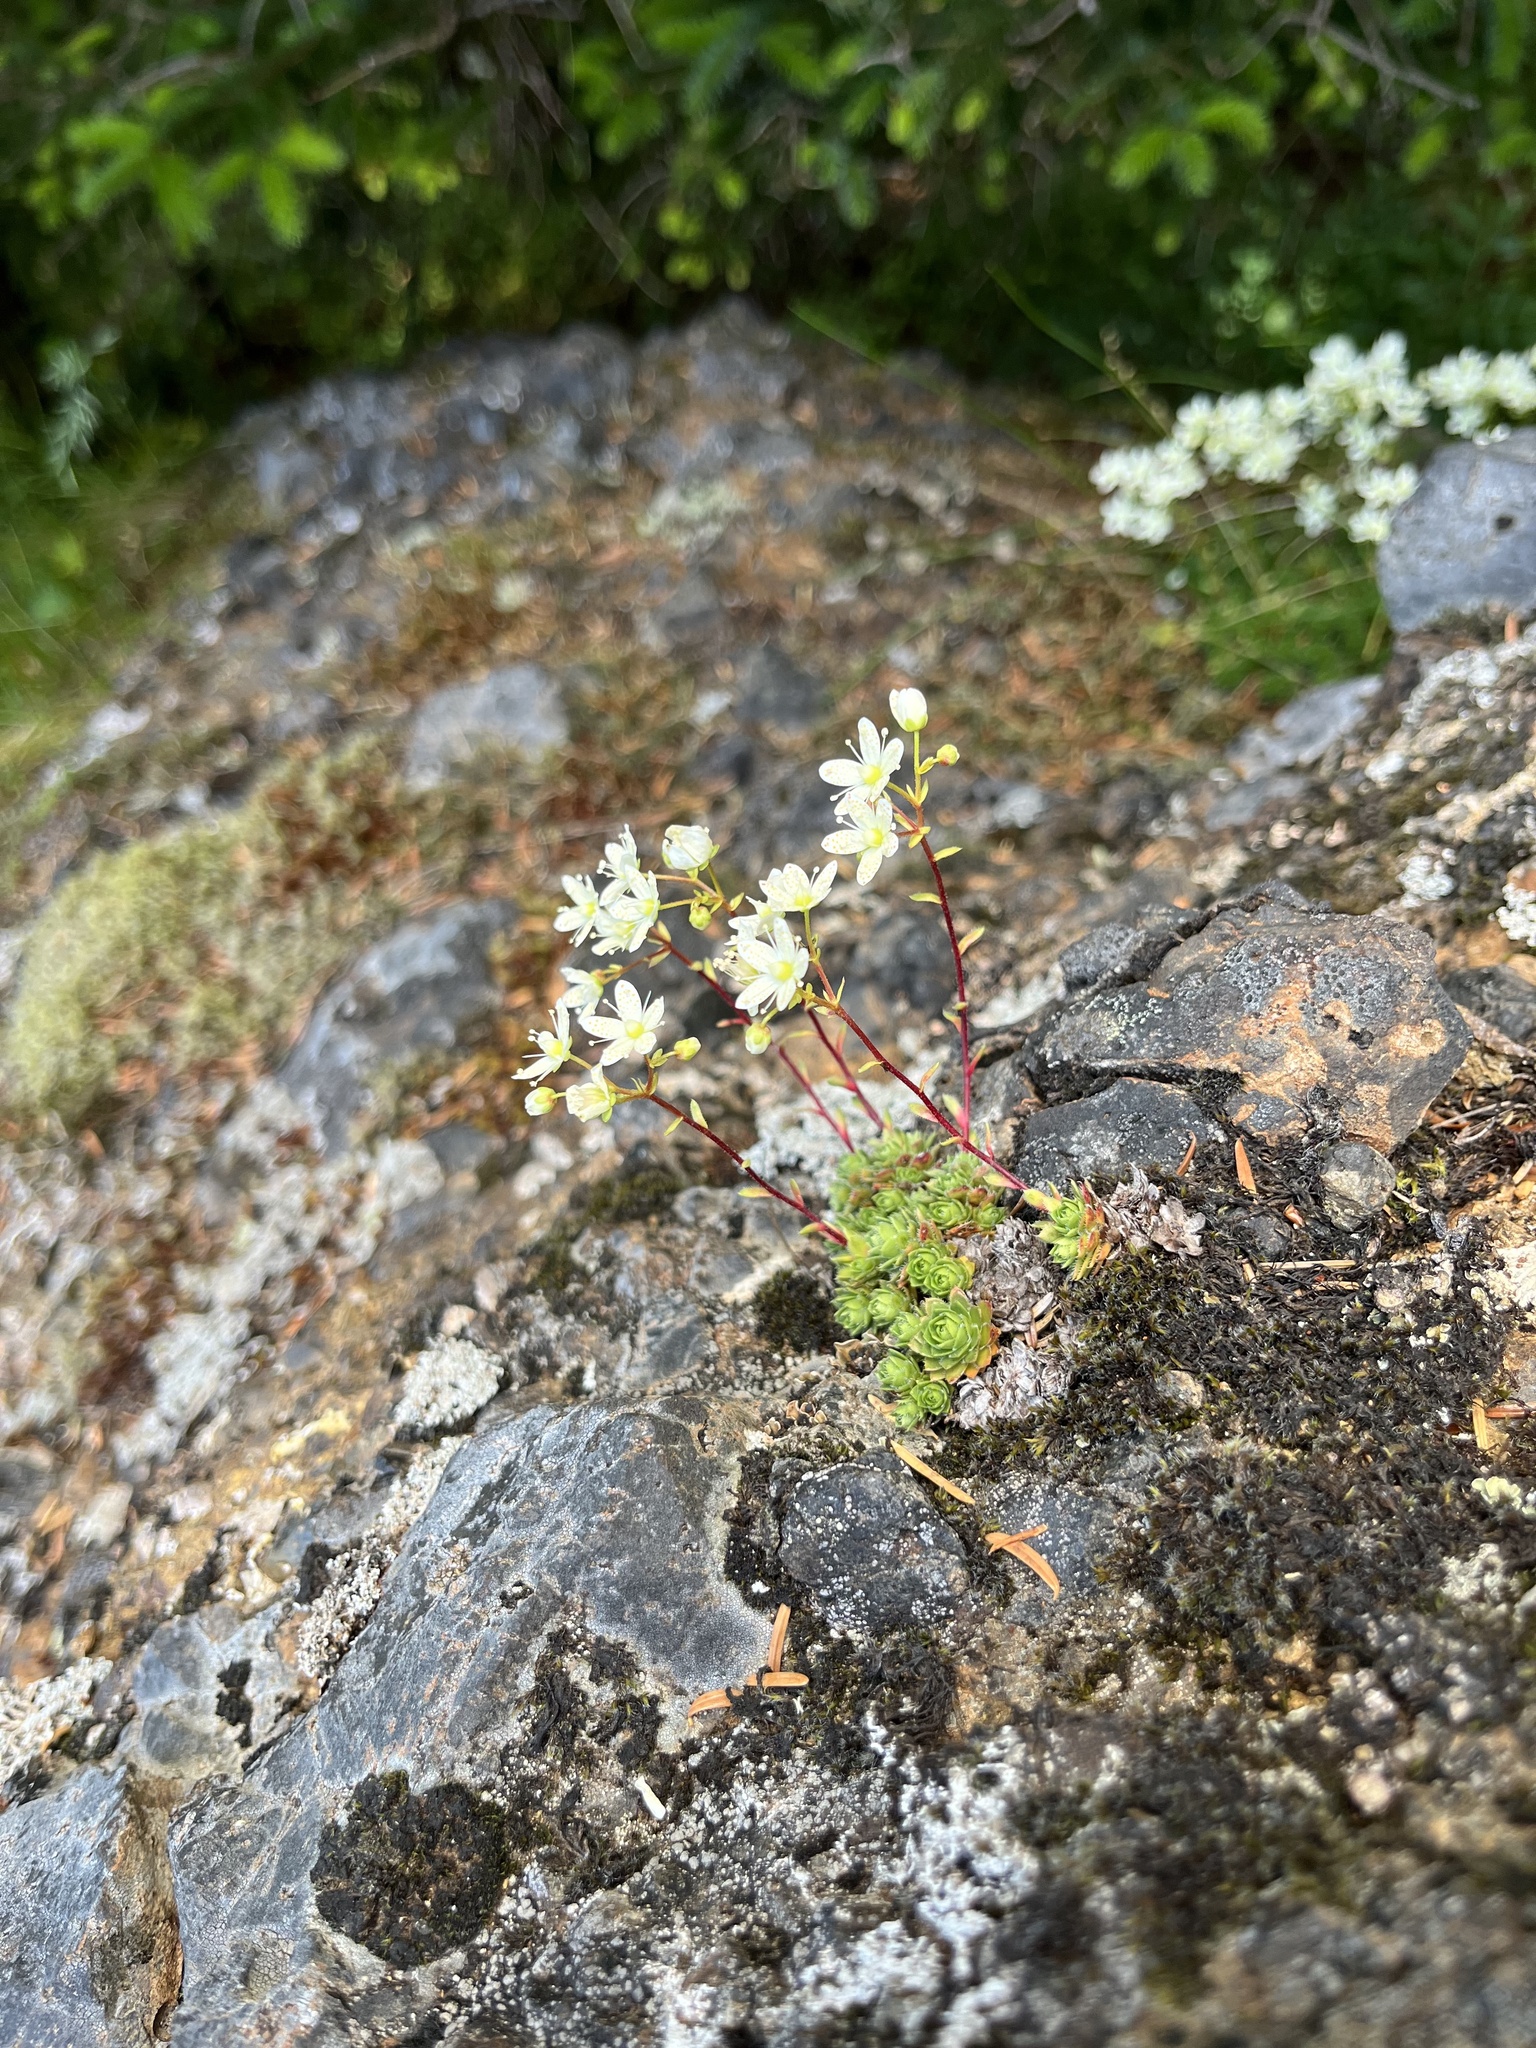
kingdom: Plantae
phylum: Tracheophyta
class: Magnoliopsida
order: Saxifragales
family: Saxifragaceae
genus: Saxifraga
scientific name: Saxifraga bronchialis
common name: Matted saxifrage
